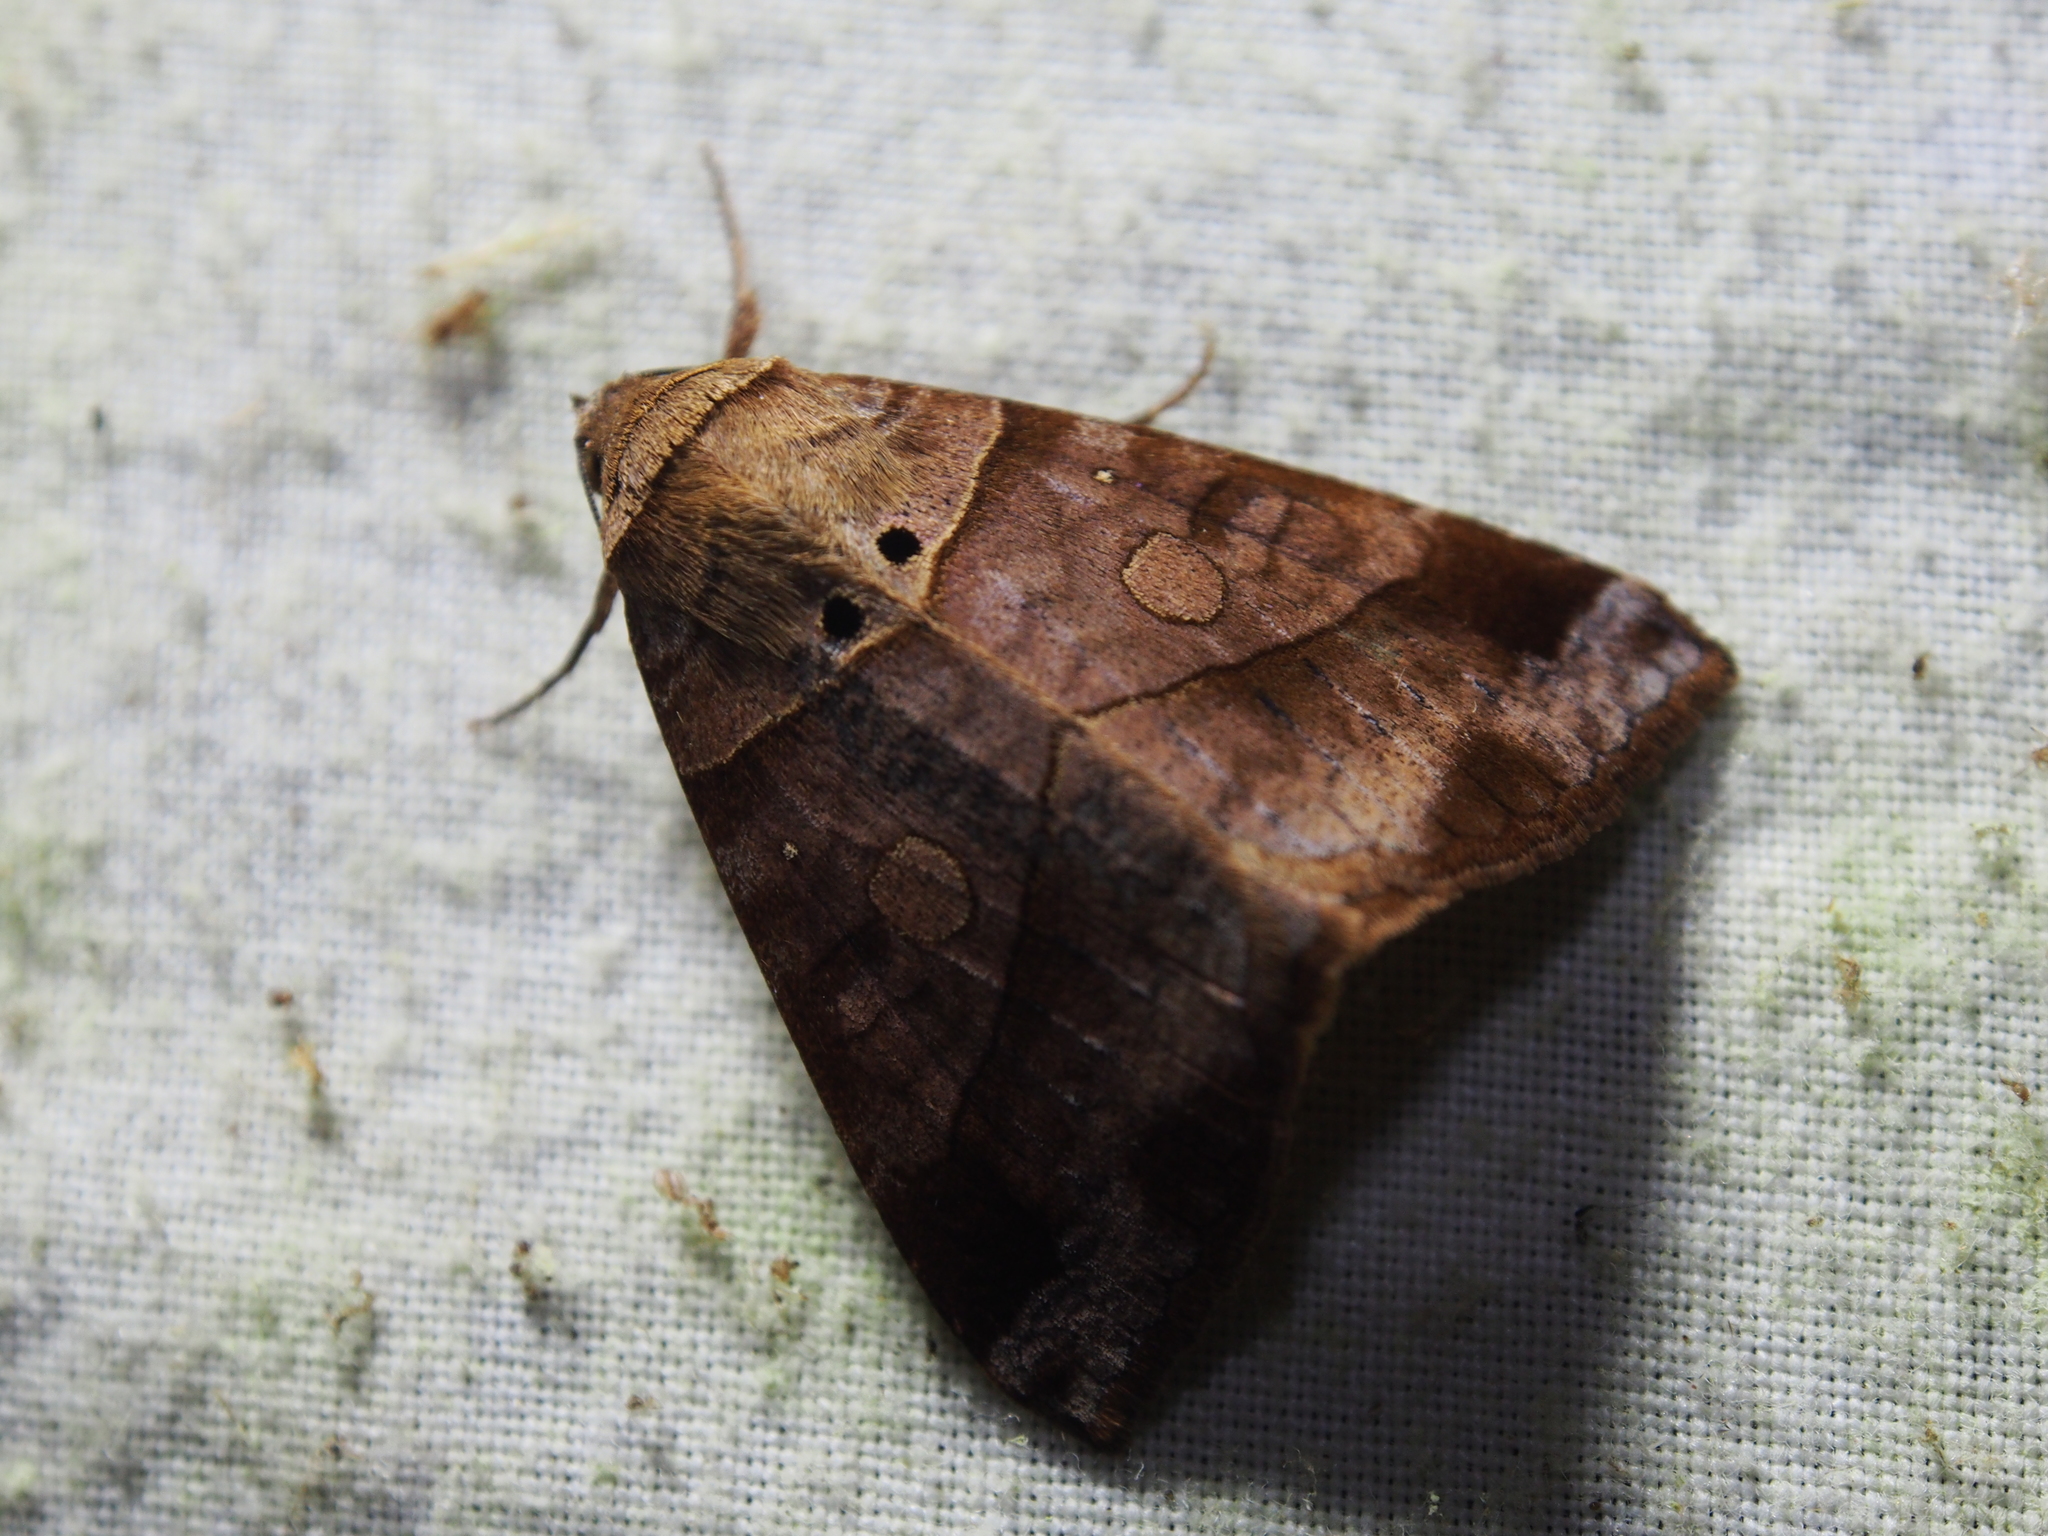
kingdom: Animalia
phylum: Arthropoda
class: Insecta
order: Lepidoptera
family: Erebidae
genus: Mocis
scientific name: Mocis diffluens
